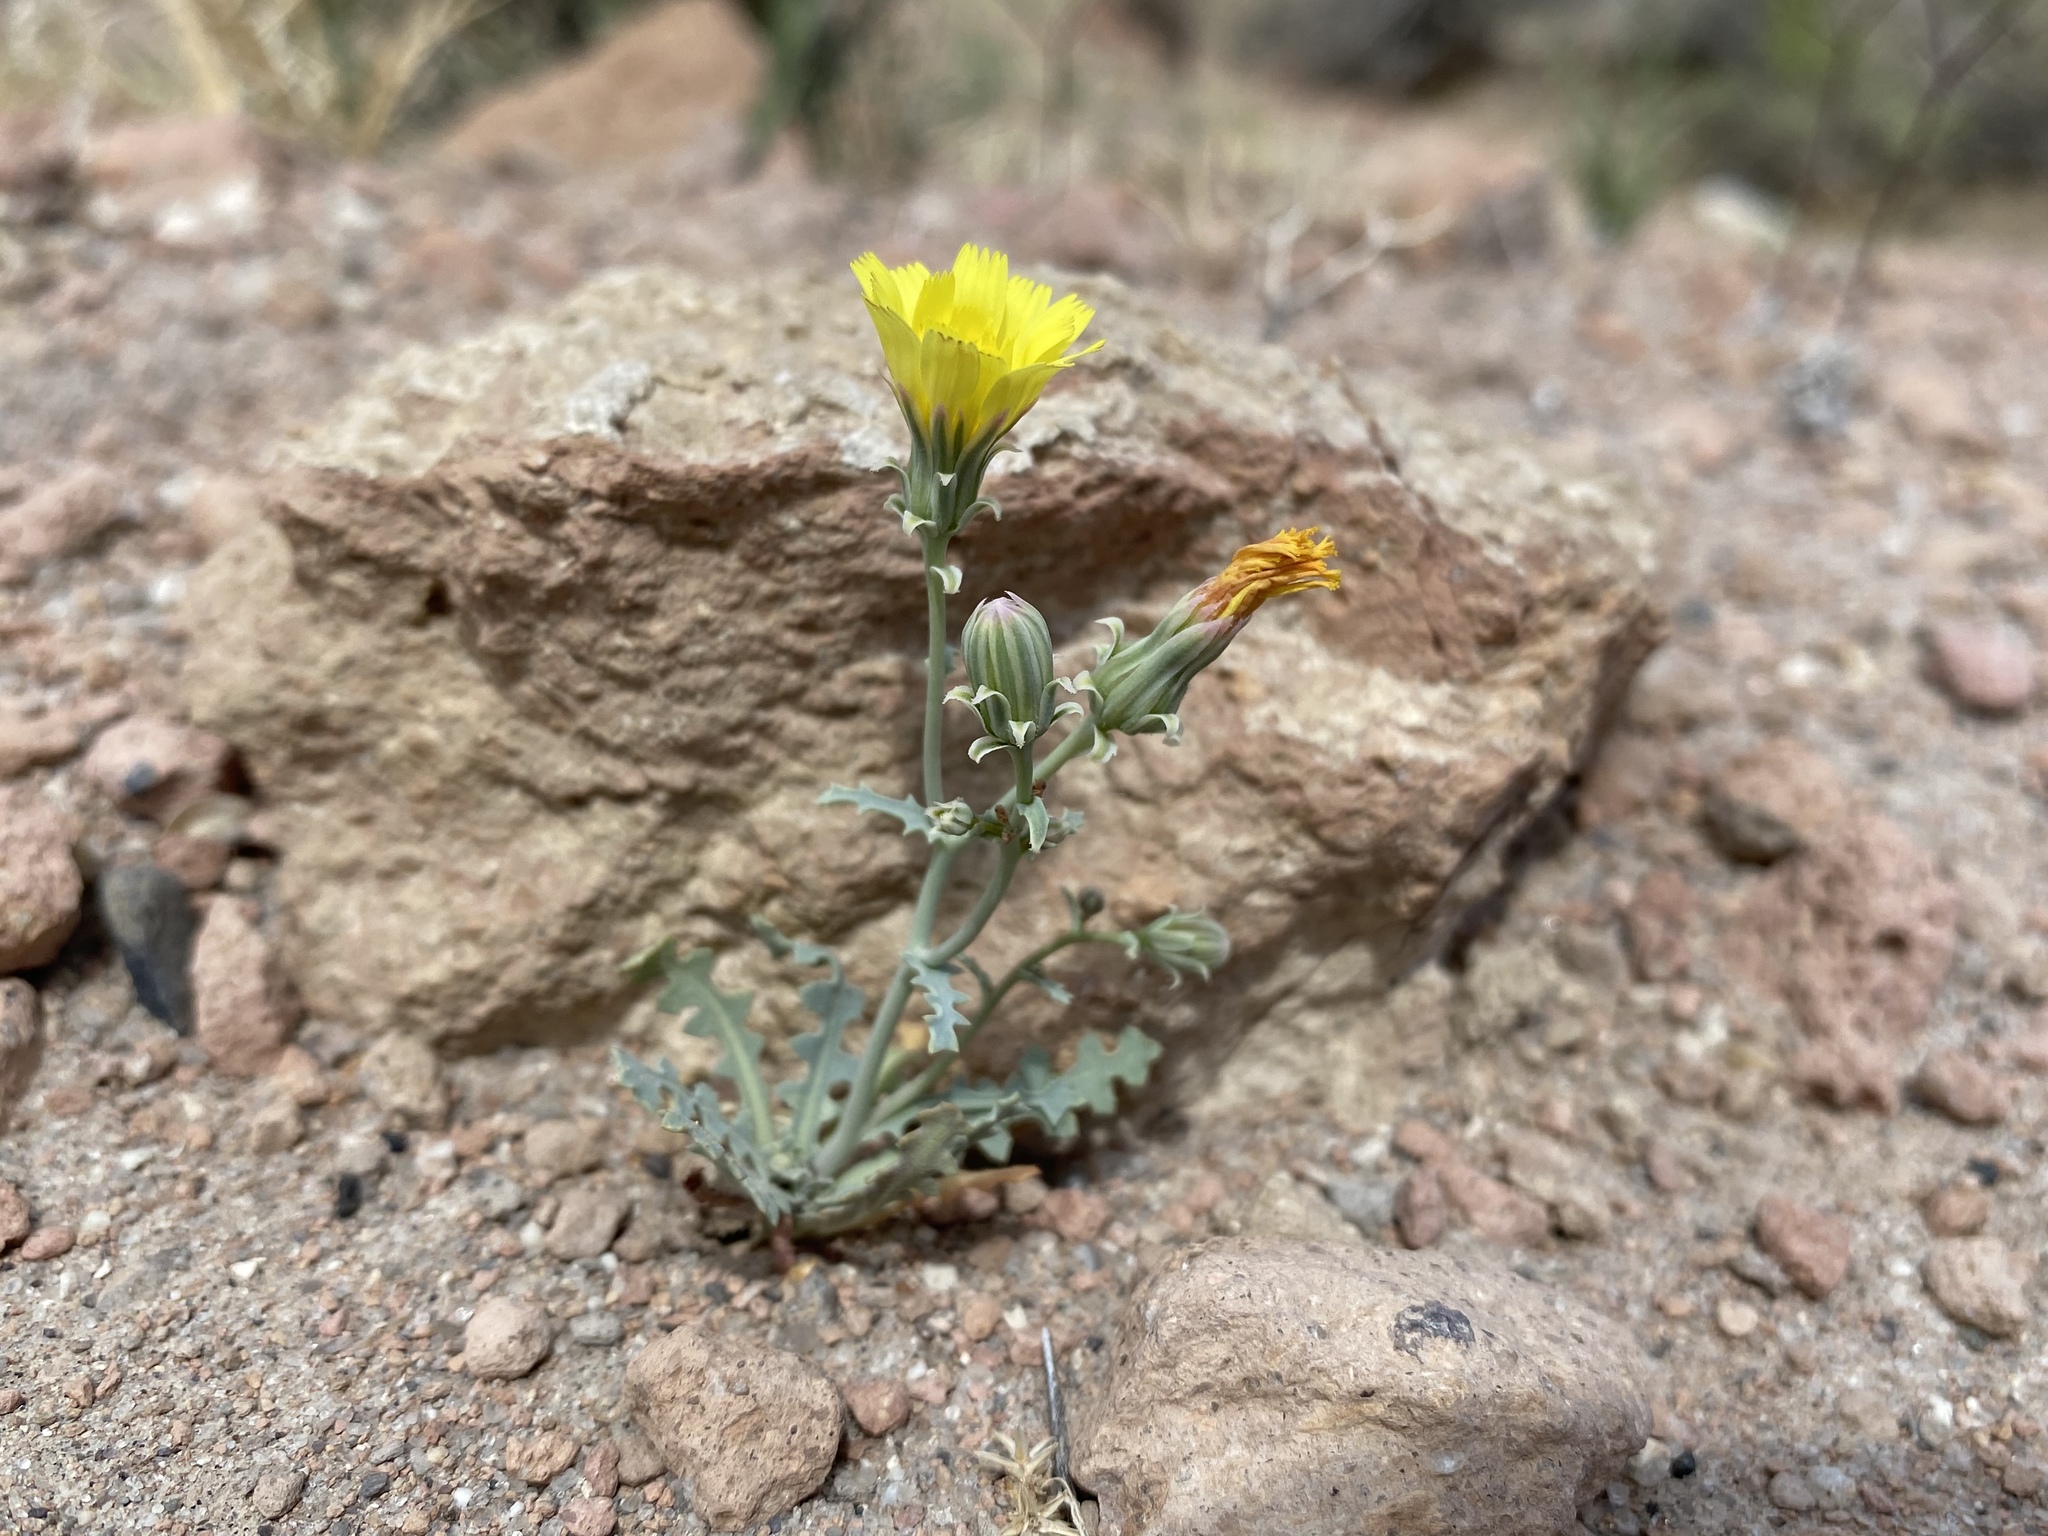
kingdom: Plantae
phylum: Tracheophyta
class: Magnoliopsida
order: Asterales
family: Asteraceae
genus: Malacothrix
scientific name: Malacothrix sonchoides
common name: Sow-thistle desert-dandelion
